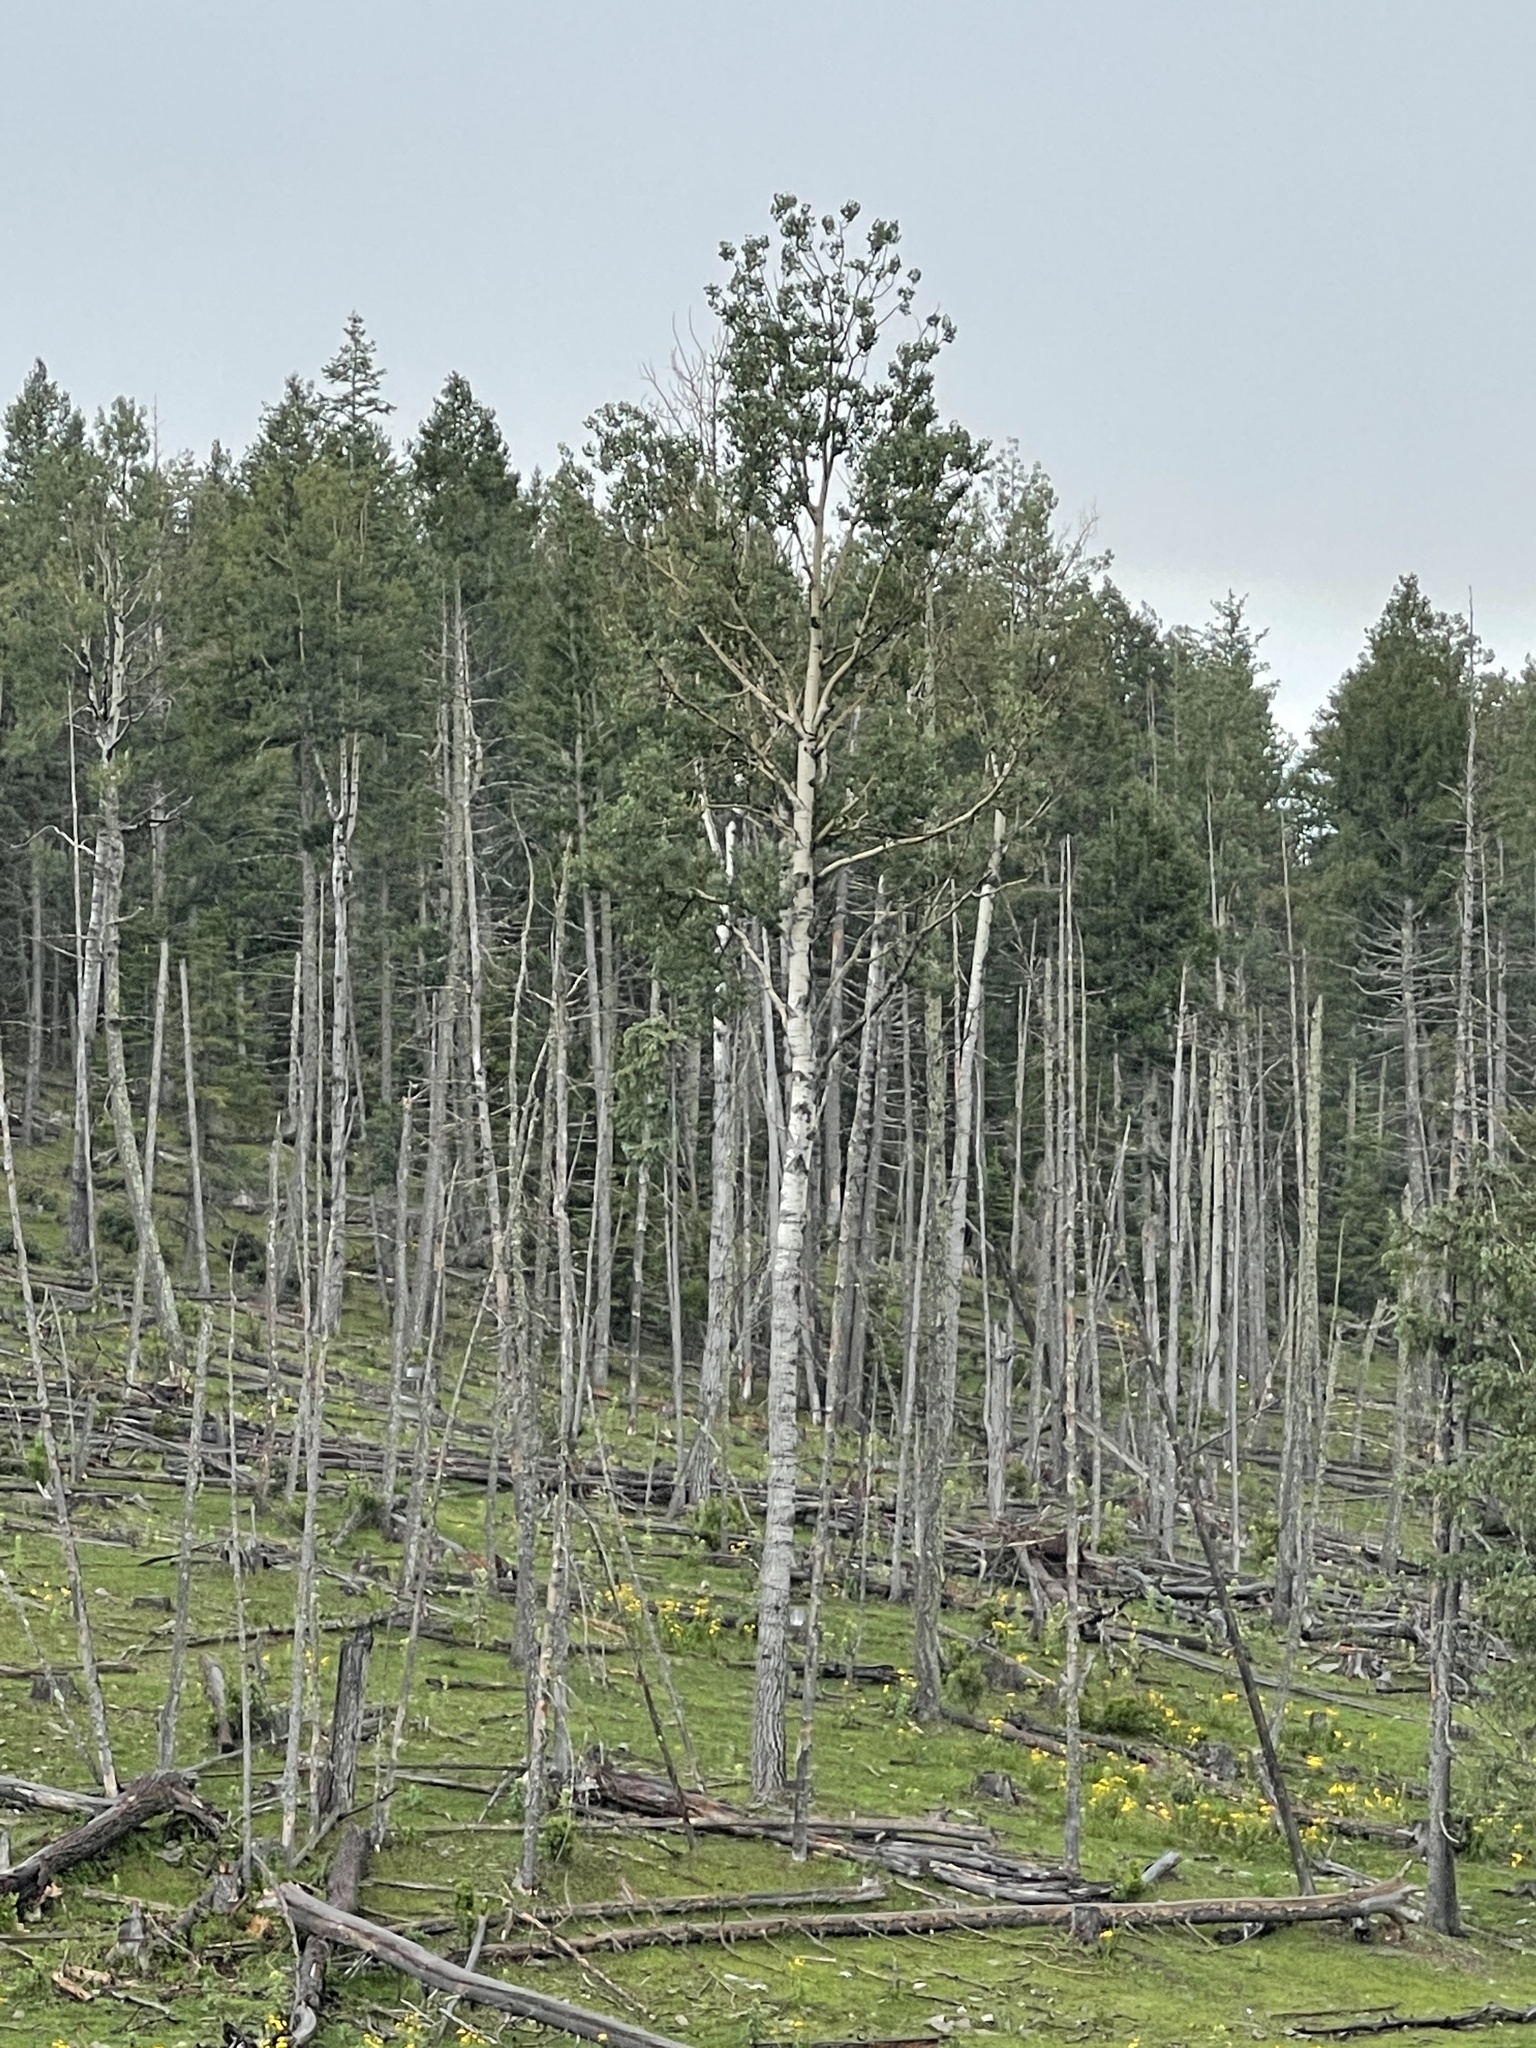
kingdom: Plantae
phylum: Tracheophyta
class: Magnoliopsida
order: Malpighiales
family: Salicaceae
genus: Populus
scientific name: Populus tremuloides
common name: Quaking aspen
